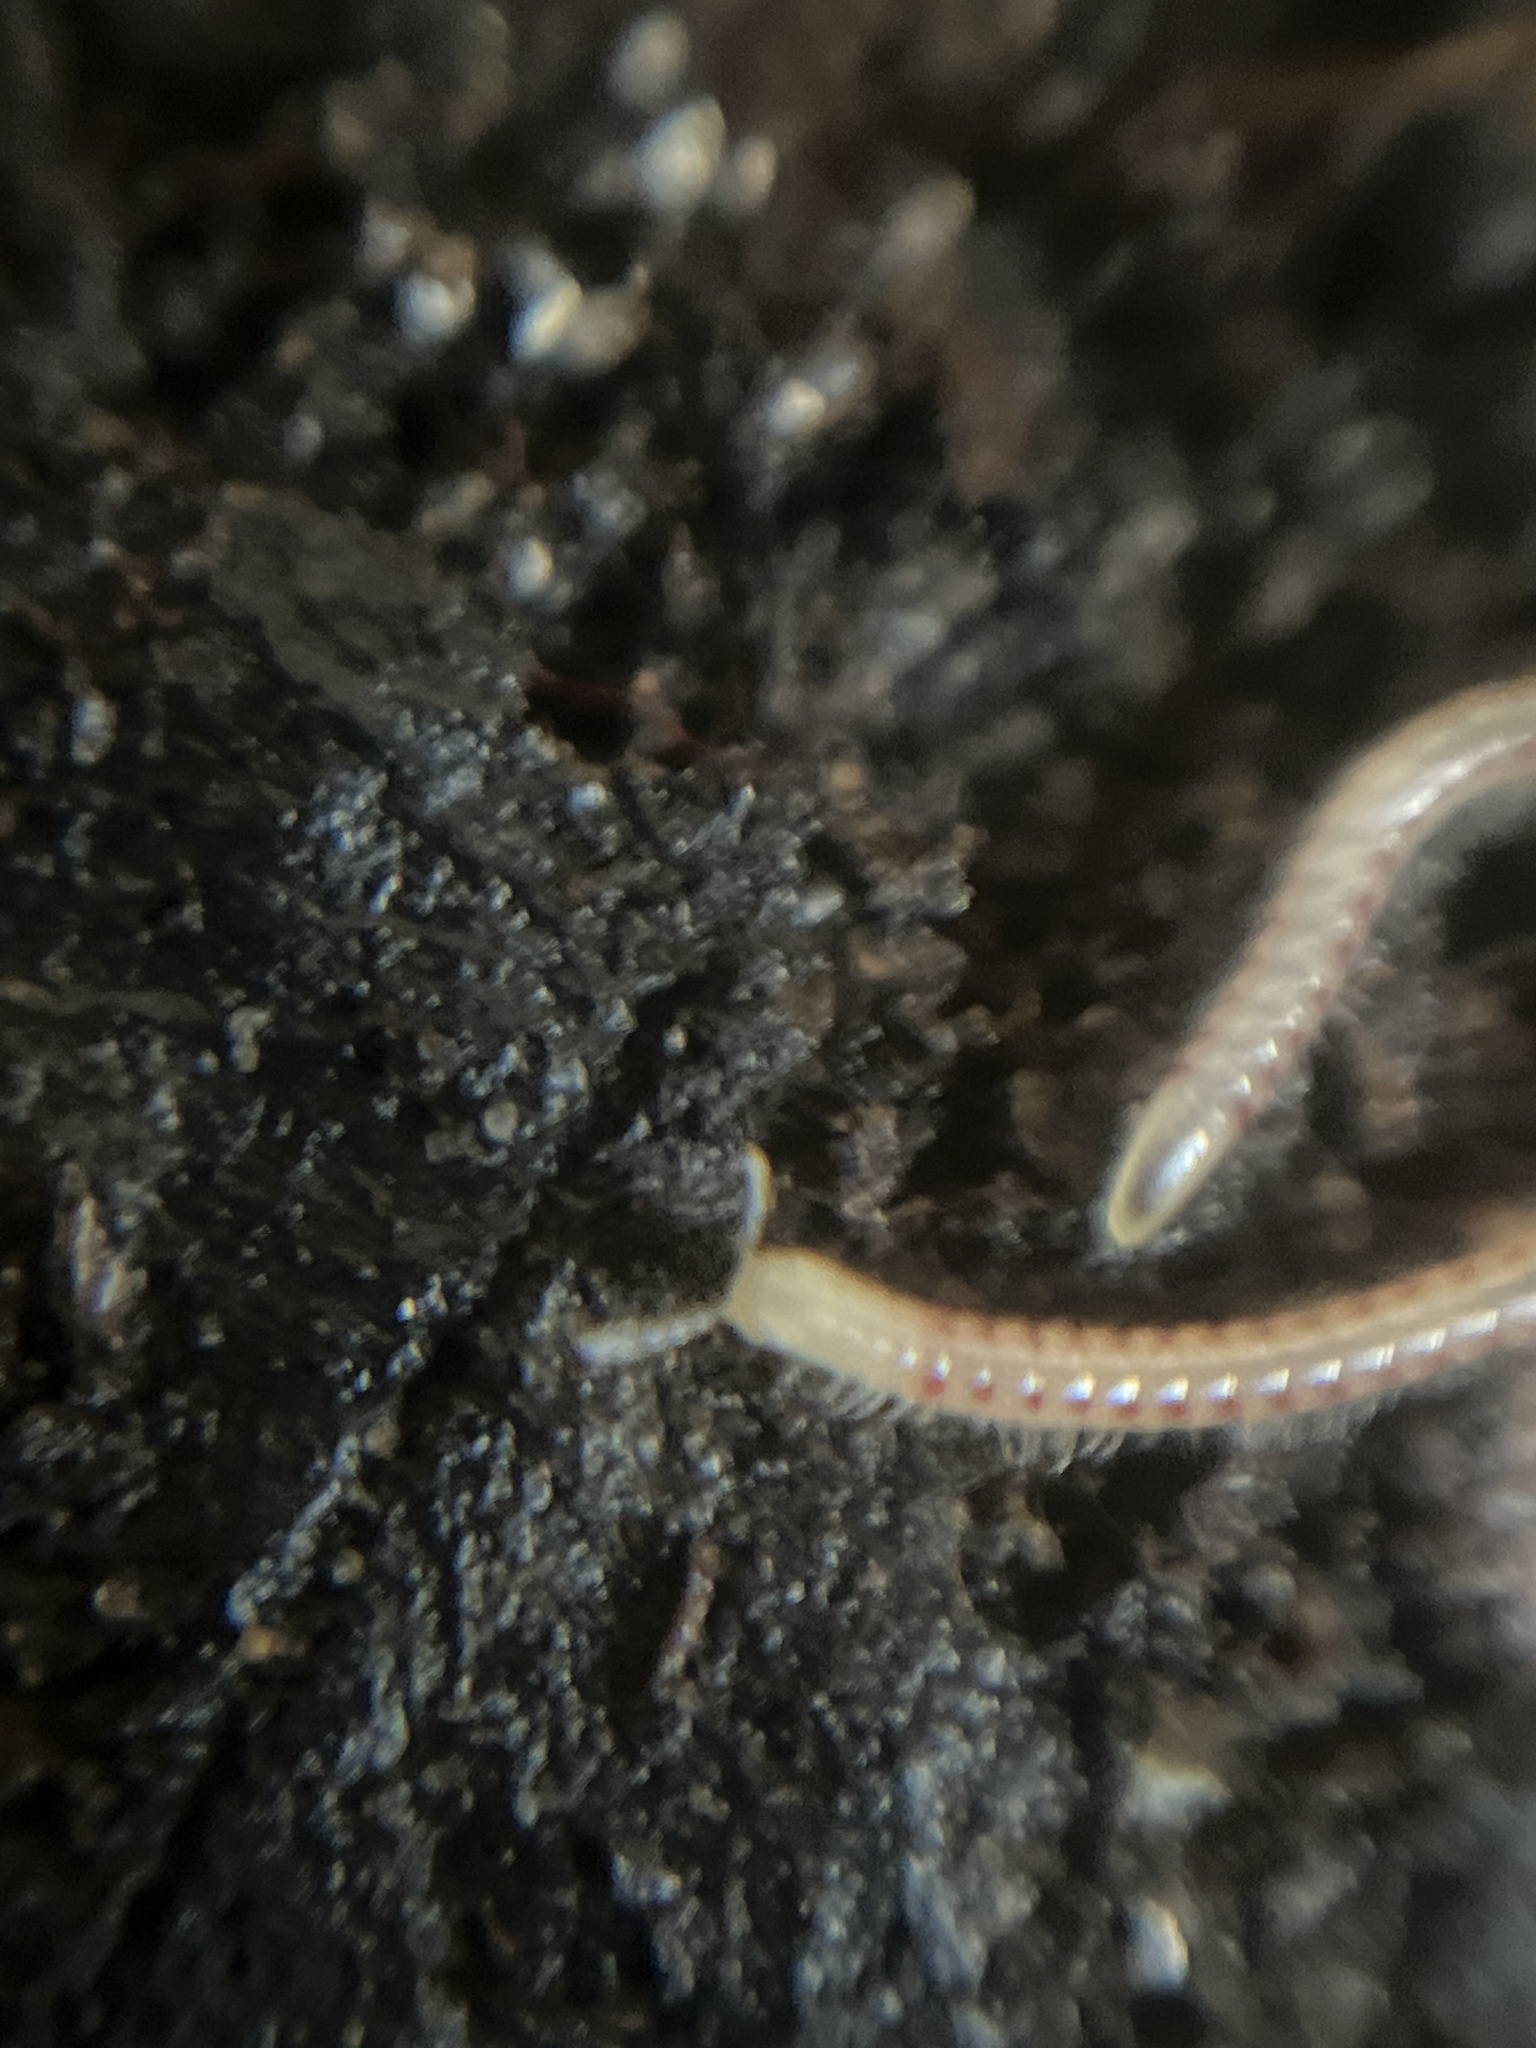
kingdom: Animalia
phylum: Arthropoda
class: Diplopoda
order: Julida
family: Blaniulidae
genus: Blaniulus
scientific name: Blaniulus guttulatus
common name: Spotted snake millipede
